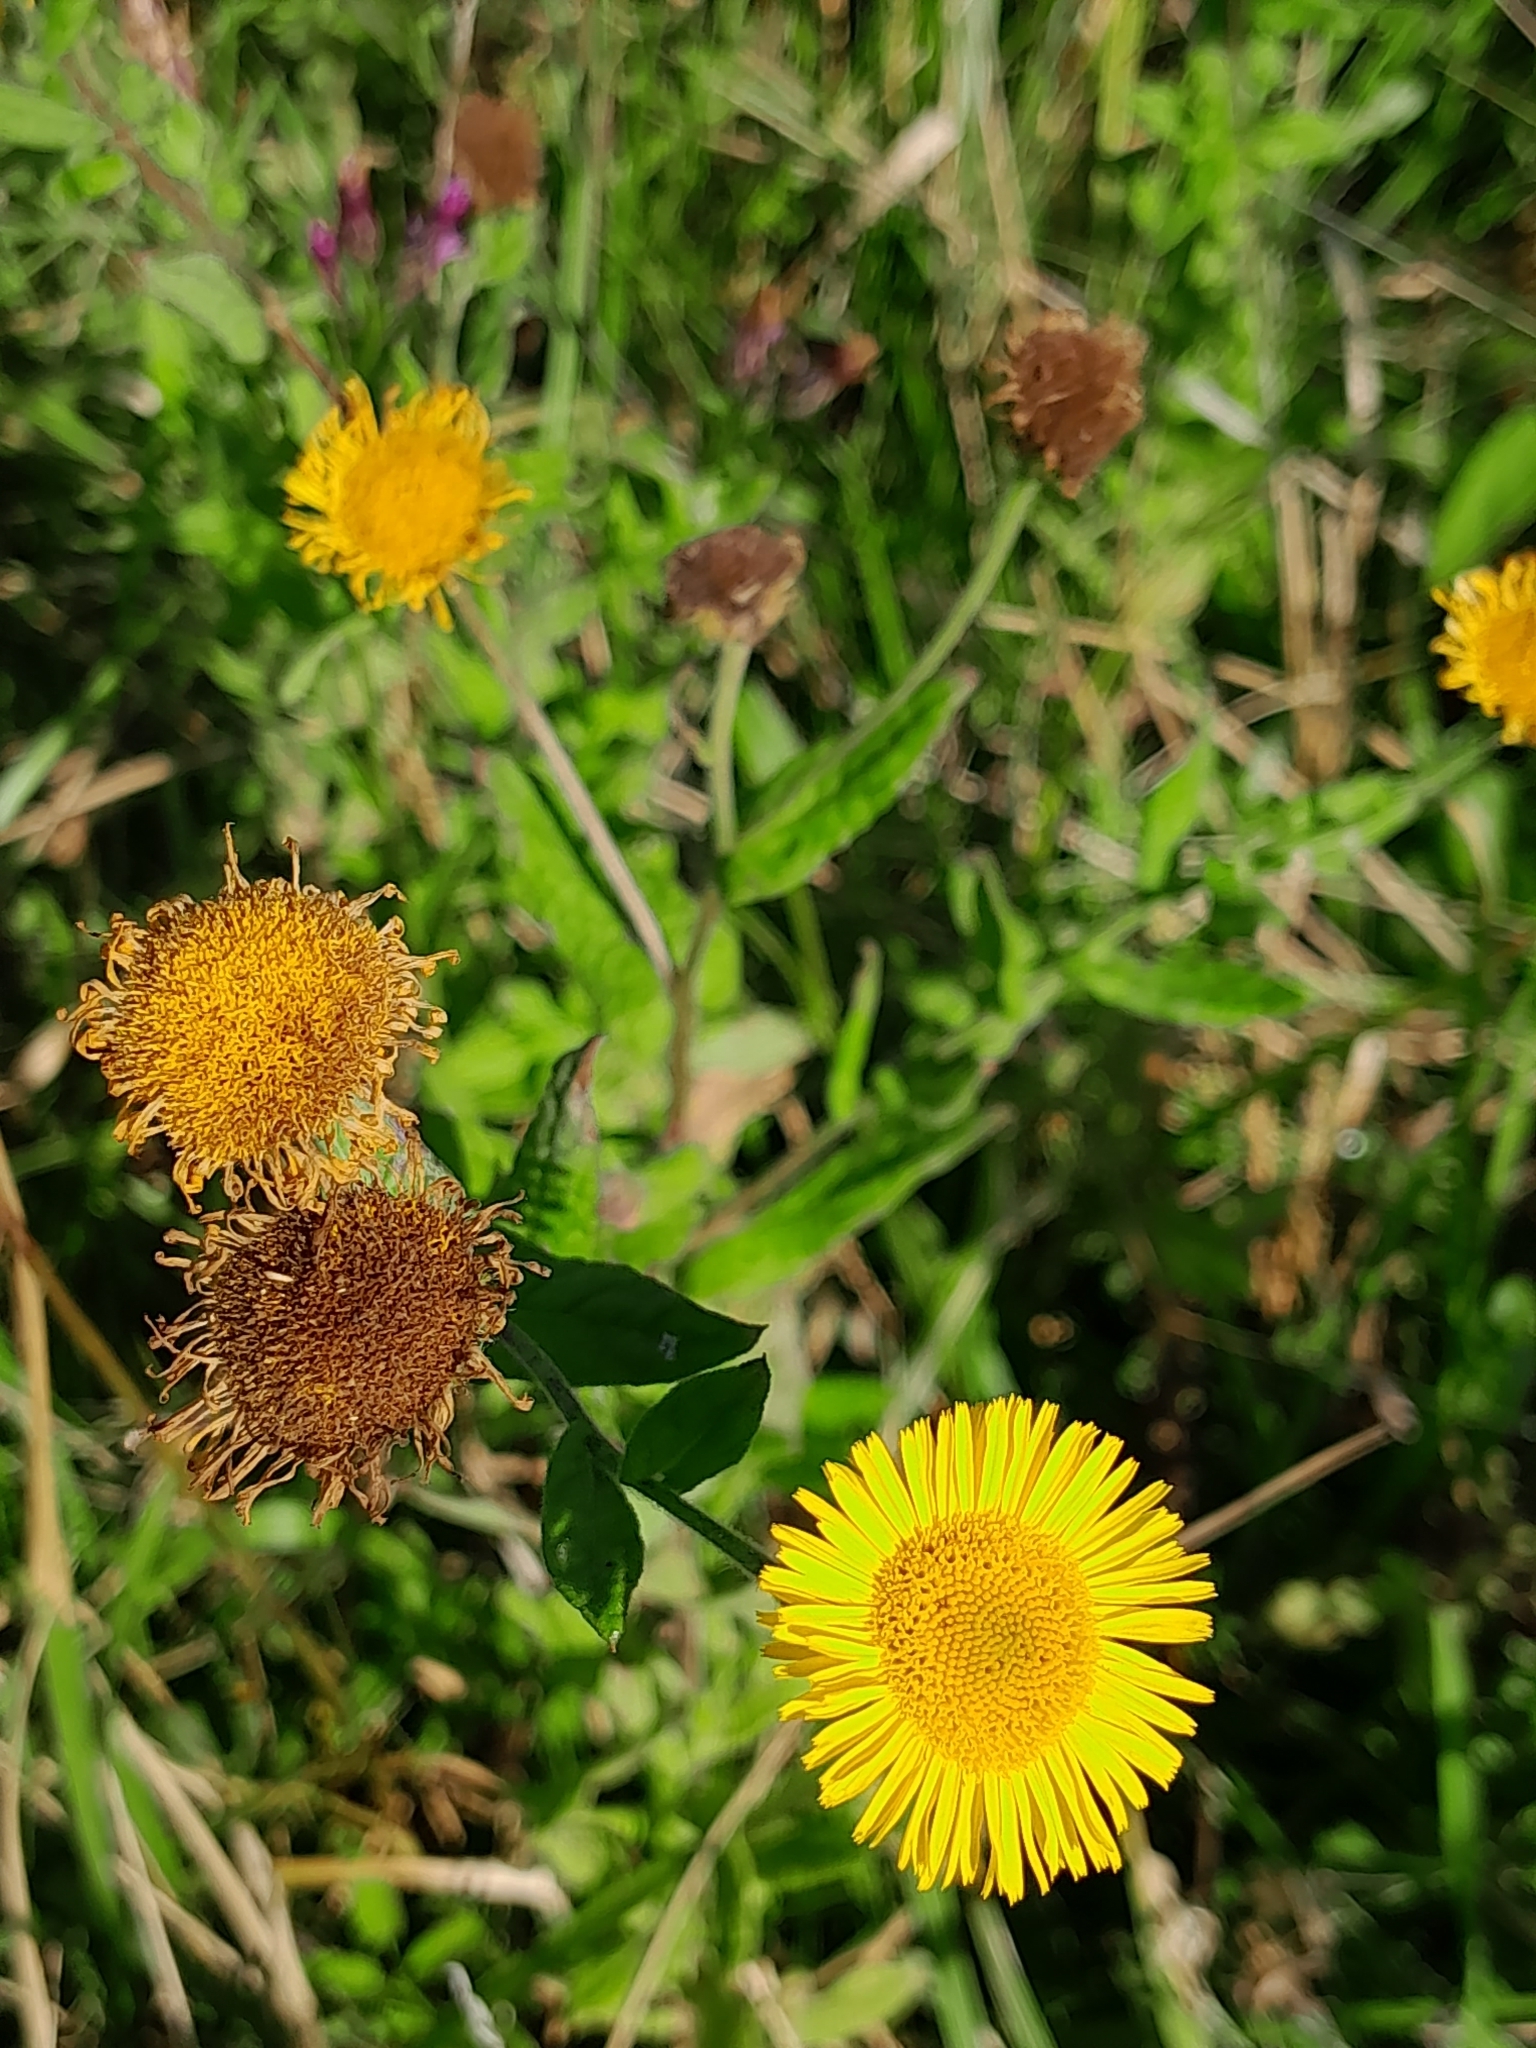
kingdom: Plantae
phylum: Tracheophyta
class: Magnoliopsida
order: Asterales
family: Asteraceae
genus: Pulicaria
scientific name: Pulicaria dysenterica
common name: Common fleabane
